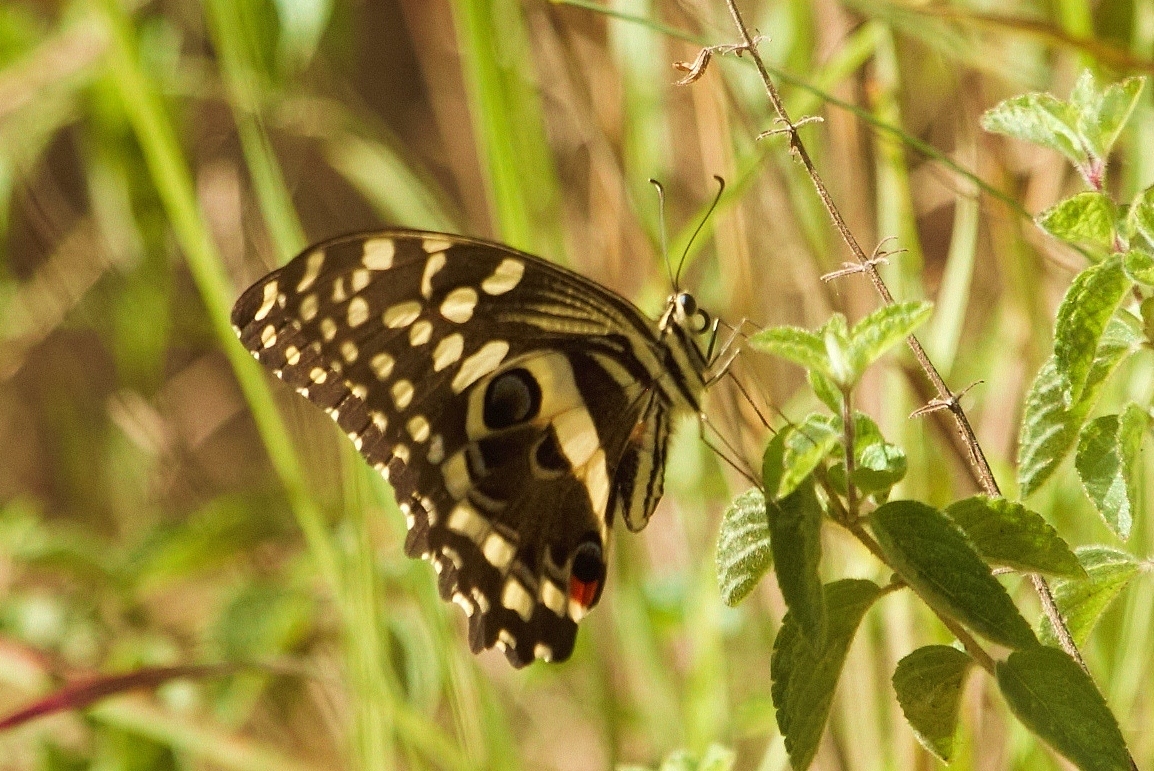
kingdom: Animalia
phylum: Arthropoda
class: Insecta
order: Lepidoptera
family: Papilionidae
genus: Papilio
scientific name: Papilio demodocus
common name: Christmas butterfly
